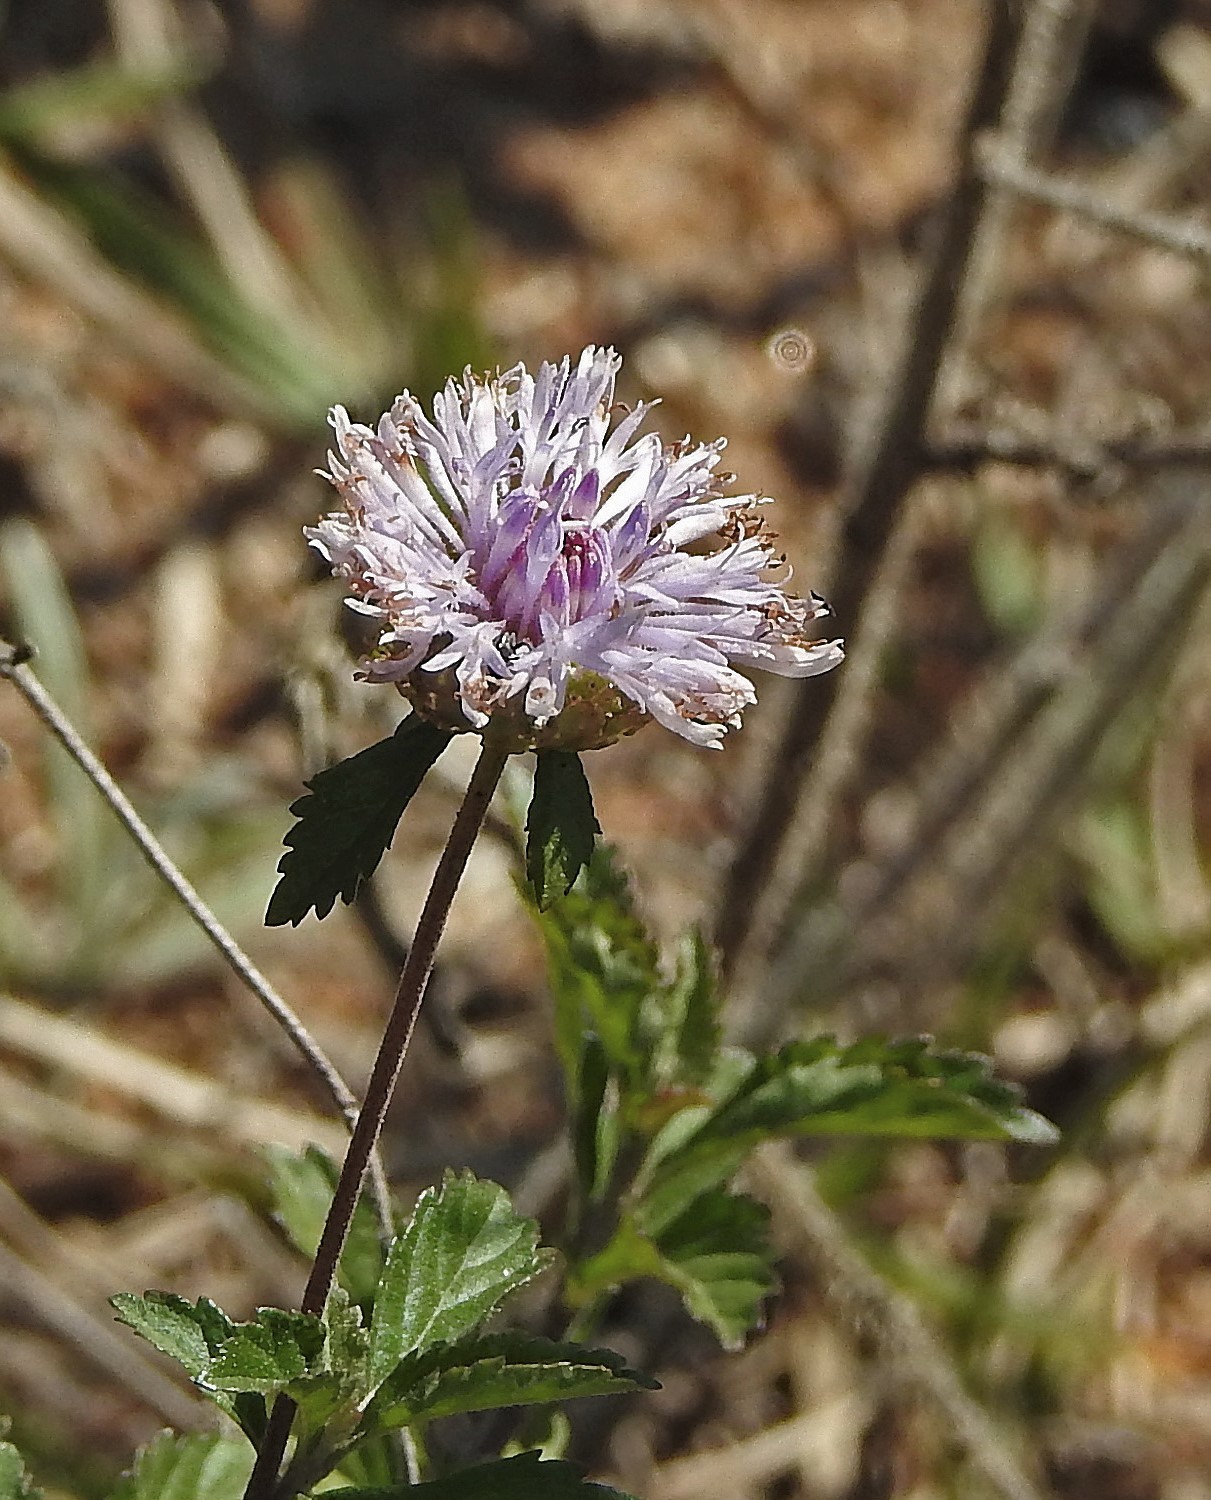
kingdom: Plantae
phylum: Tracheophyta
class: Magnoliopsida
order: Asterales
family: Asteraceae
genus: Centratherum
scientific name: Centratherum punctatum
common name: Larkdaisy
